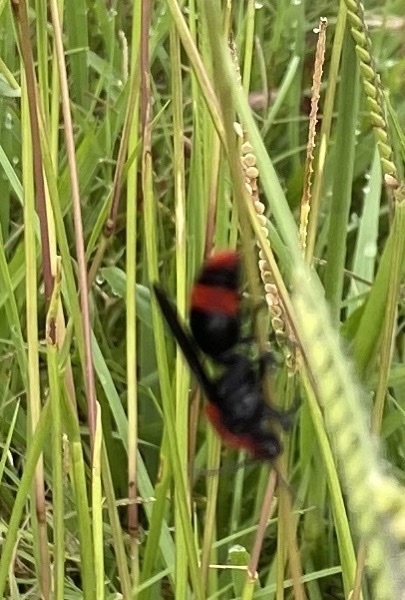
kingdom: Animalia
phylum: Arthropoda
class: Insecta
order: Hymenoptera
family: Mutillidae
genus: Dasymutilla
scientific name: Dasymutilla occidentalis
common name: Common eastern velvet ant
